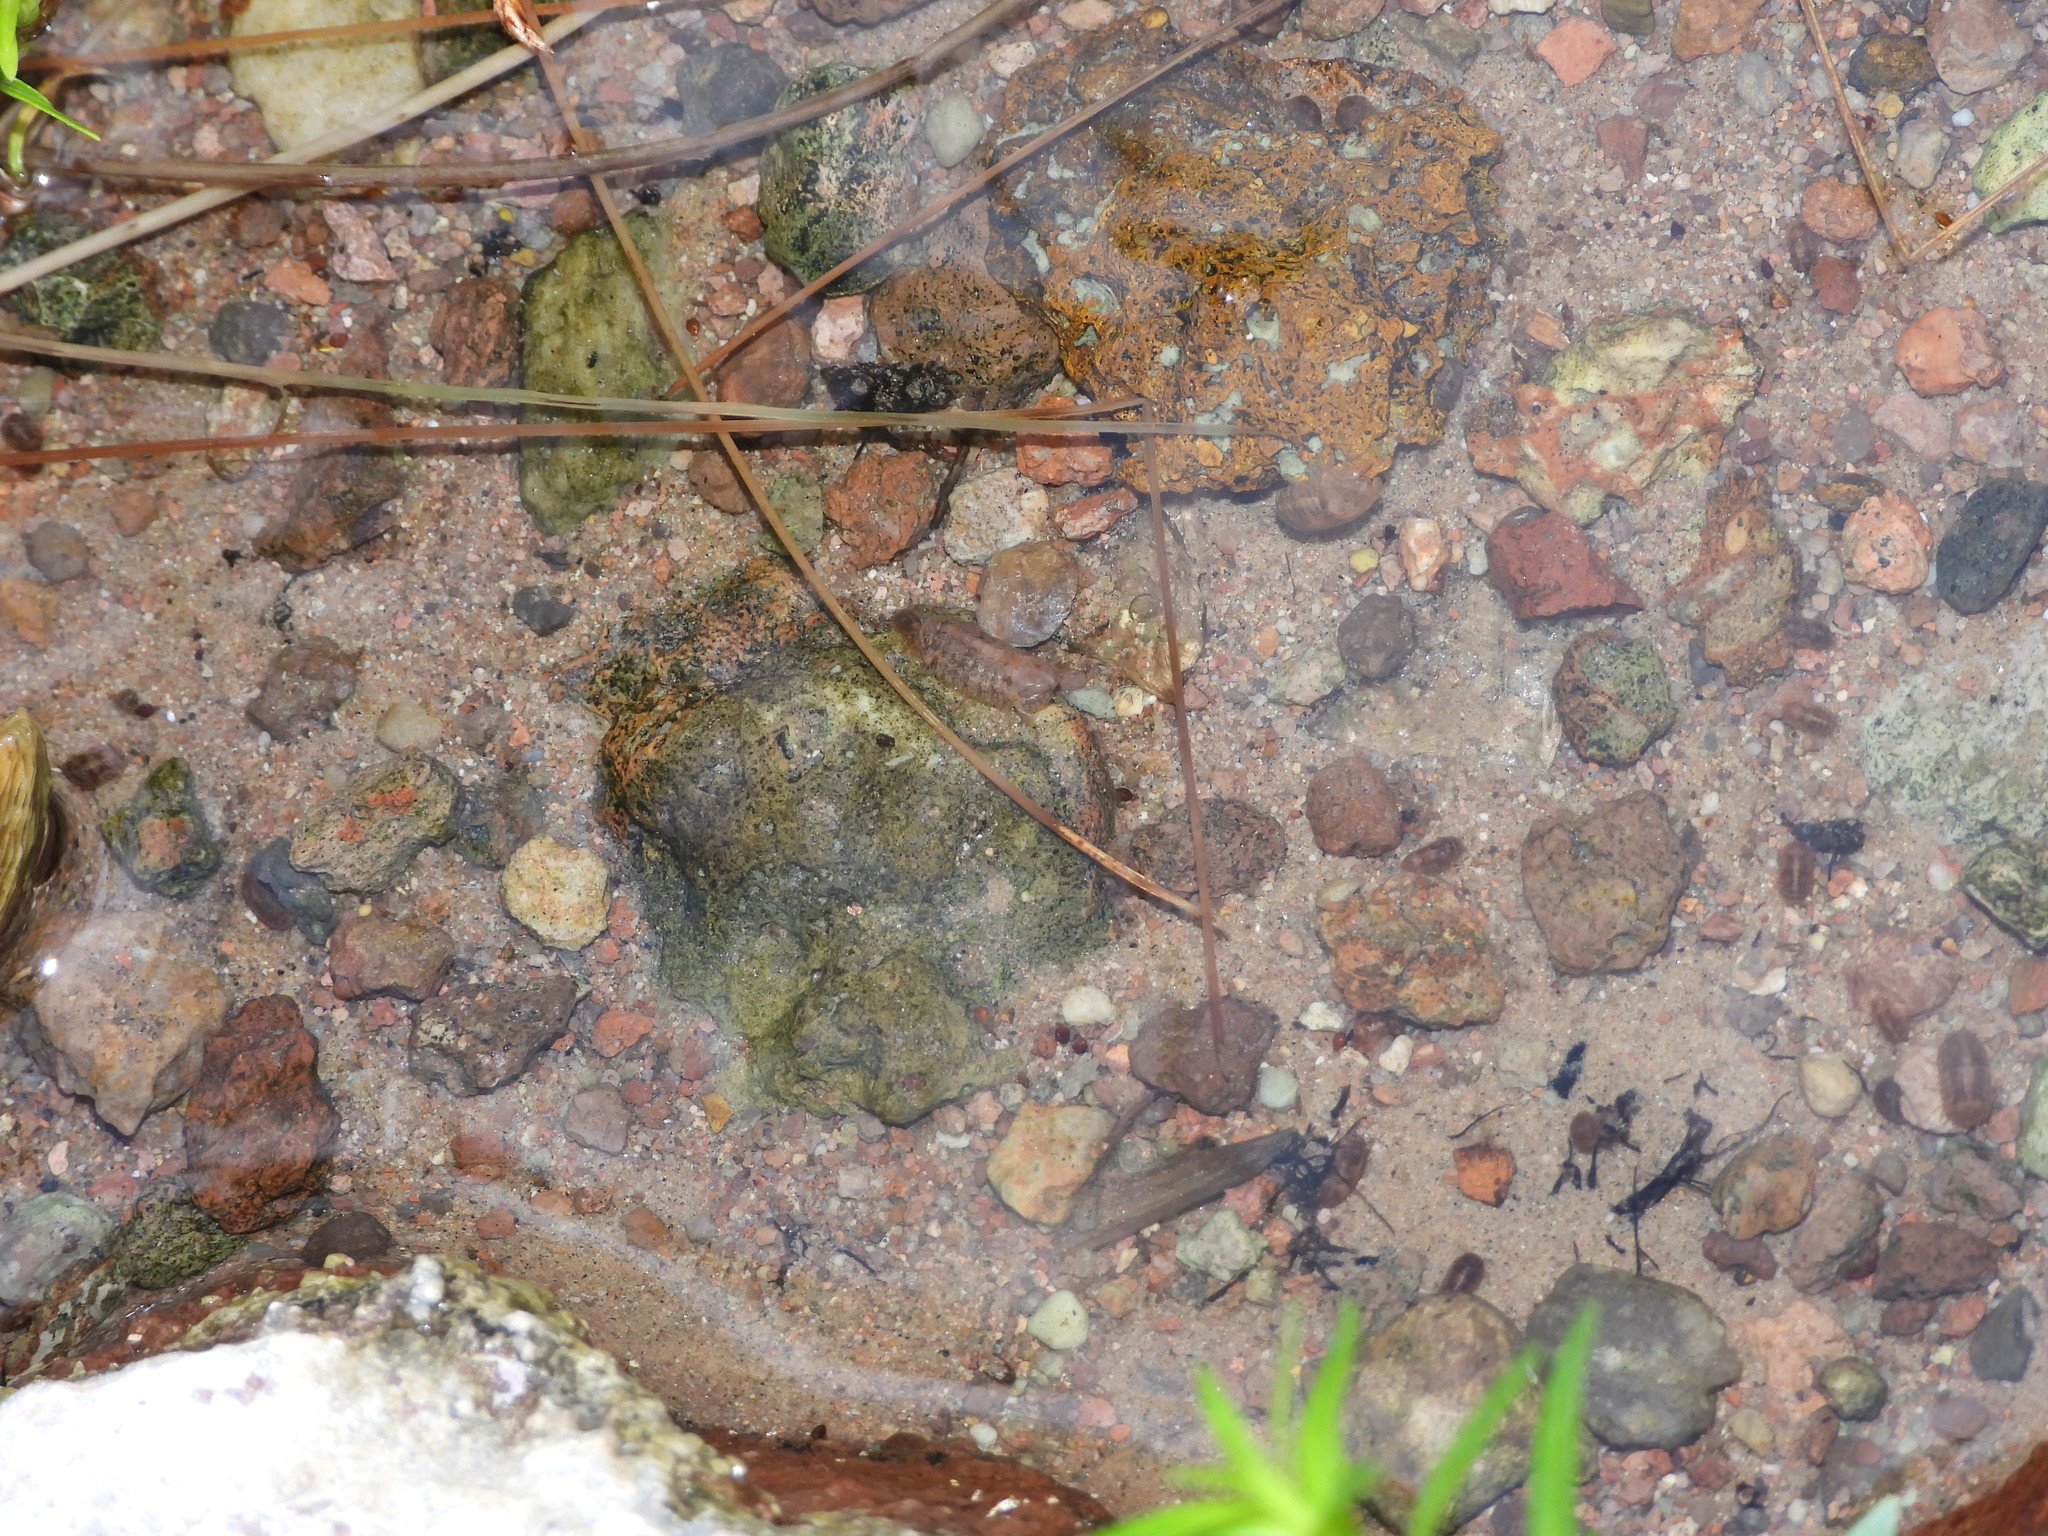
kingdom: Animalia
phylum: Arthropoda
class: Malacostraca
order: Isopoda
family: Sphaeromatidae
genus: Thermosphaeroma
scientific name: Thermosphaeroma thermophilum
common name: Socorro isopod
